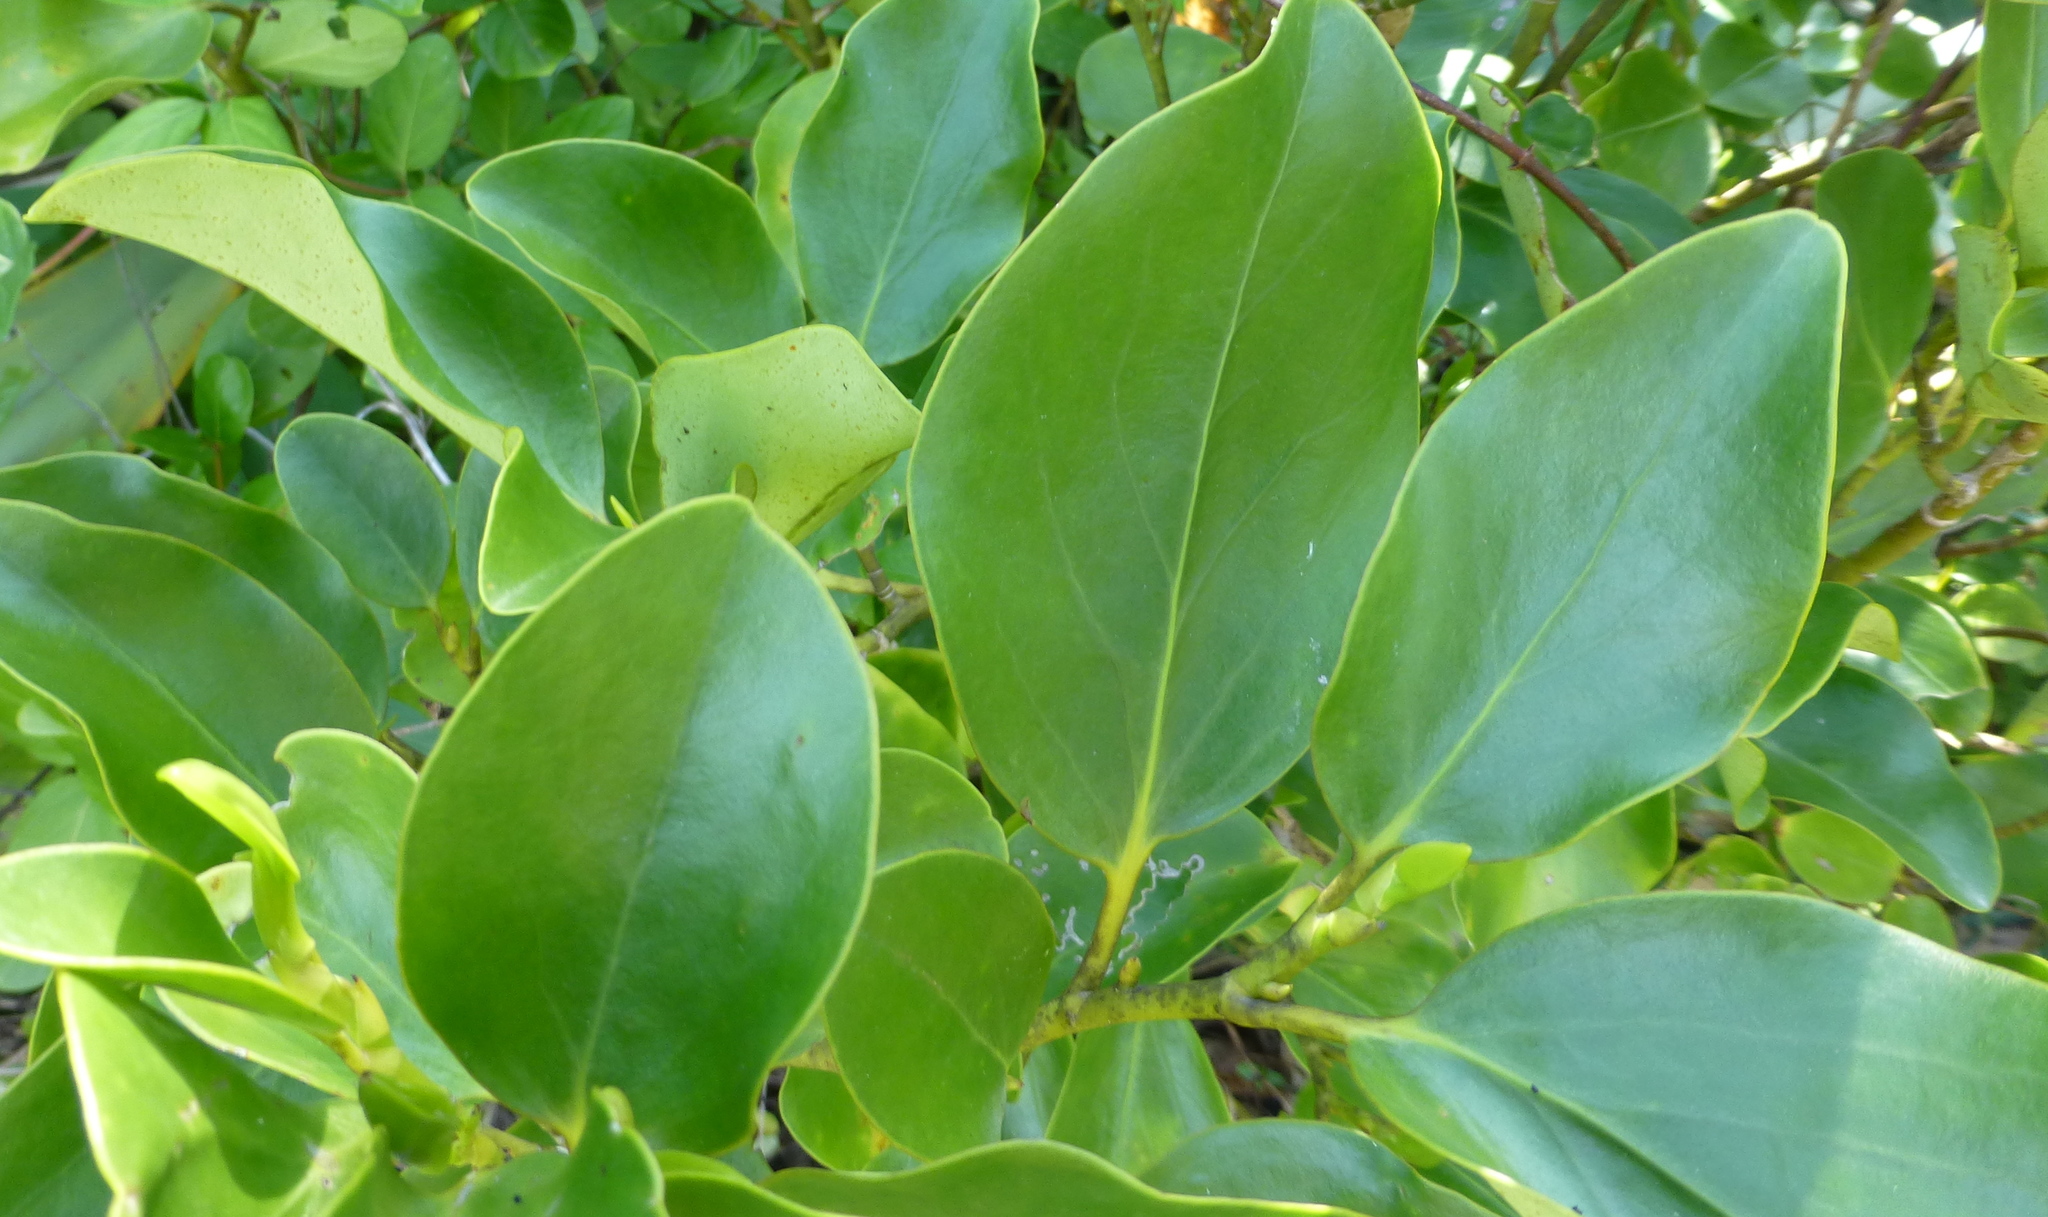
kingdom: Plantae
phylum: Tracheophyta
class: Magnoliopsida
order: Apiales
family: Griseliniaceae
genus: Griselinia
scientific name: Griselinia littoralis
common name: New zealand broadleaf
